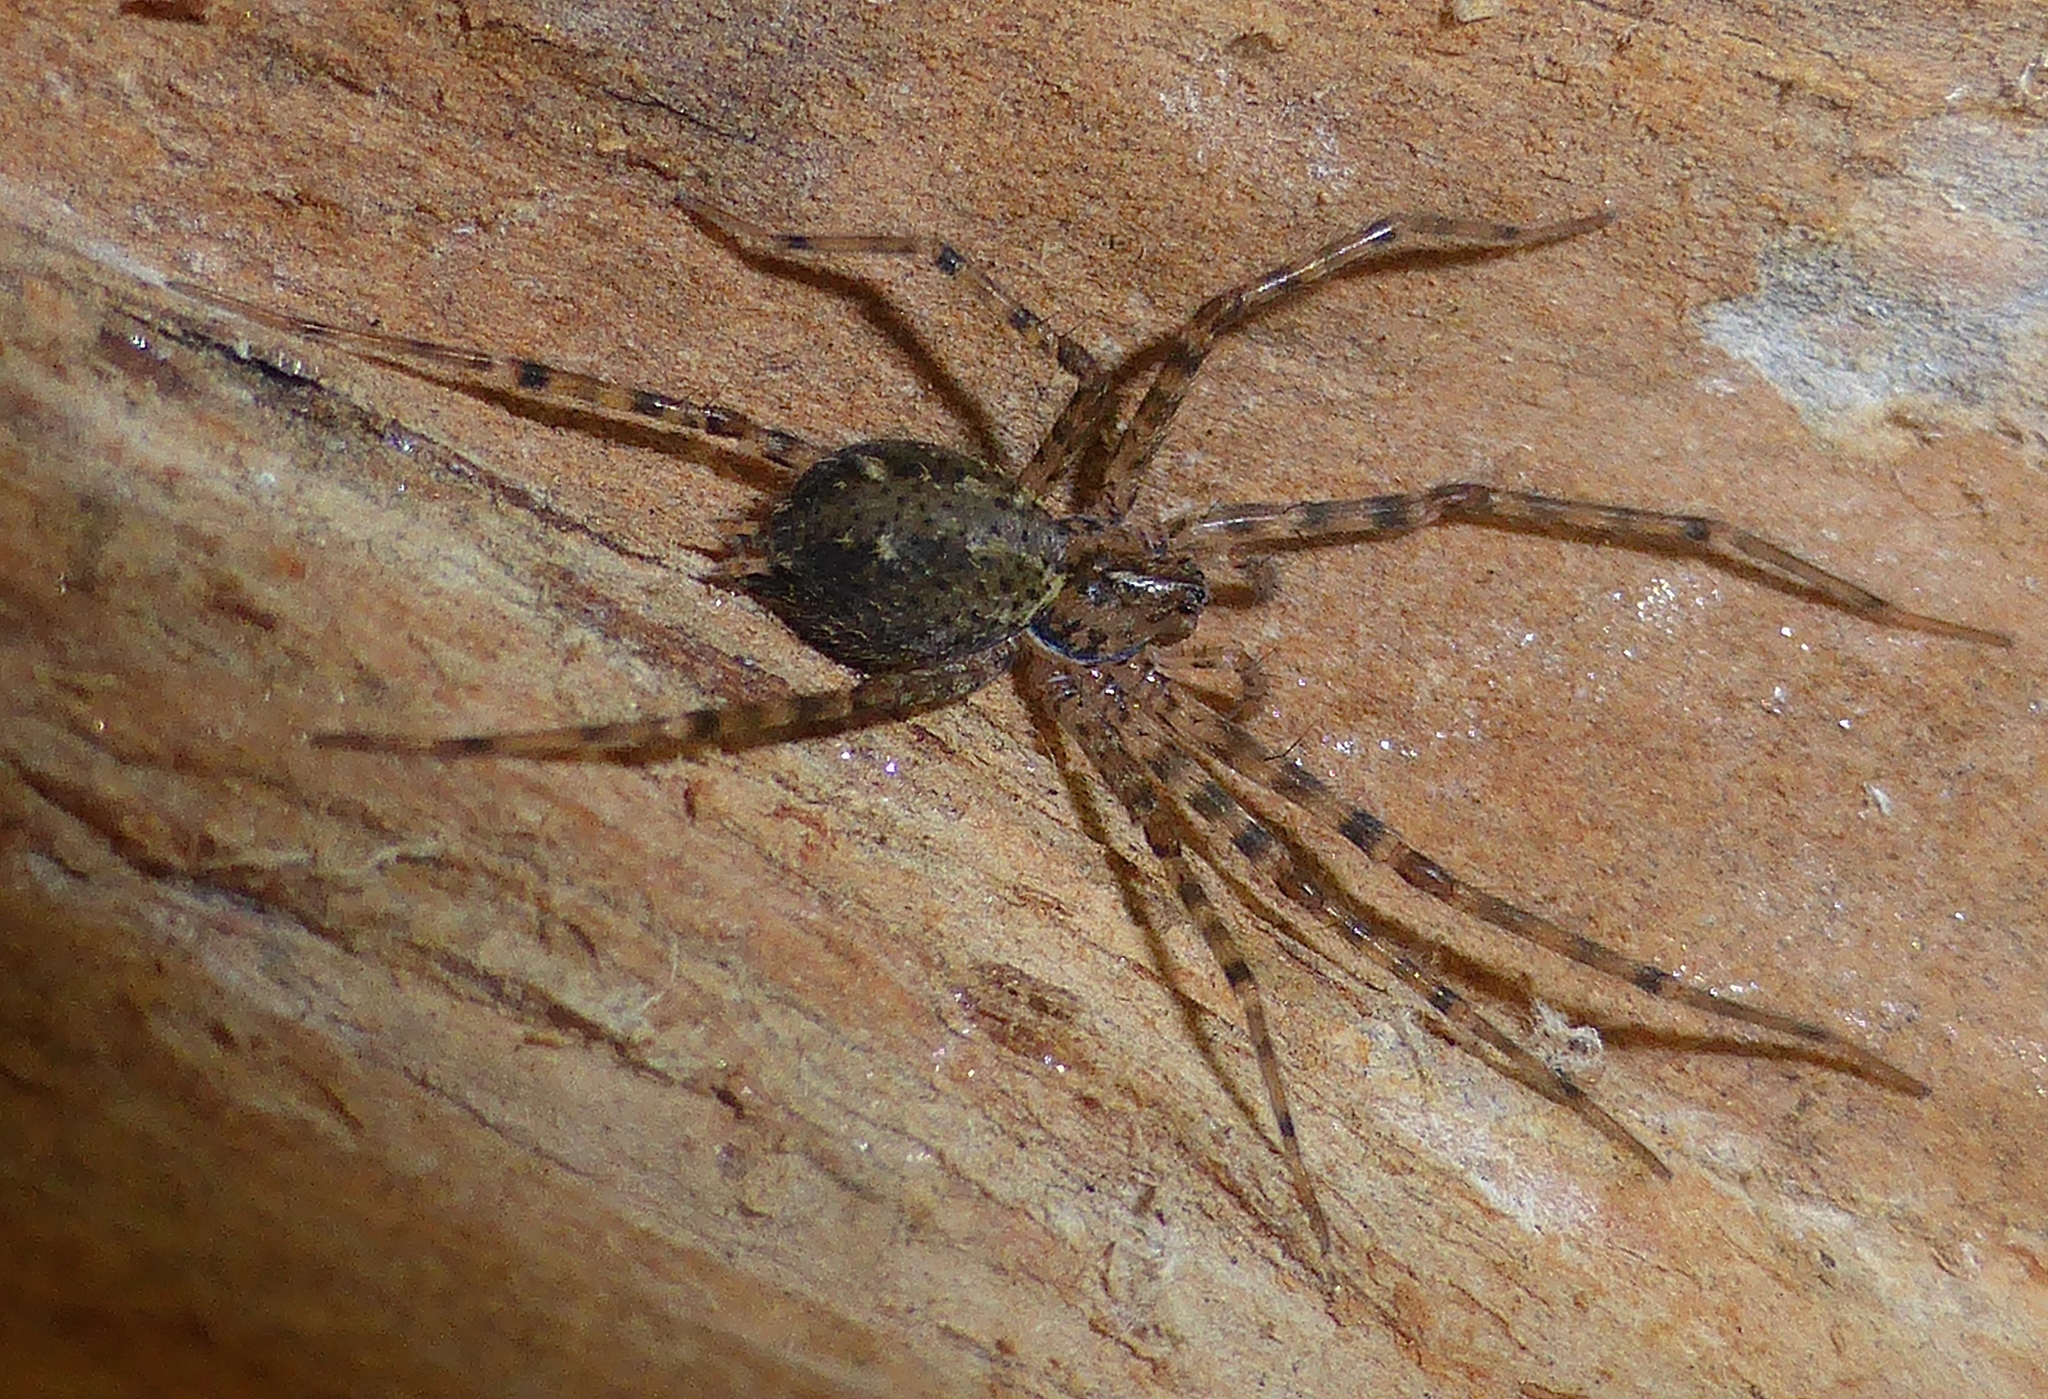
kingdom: Animalia
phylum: Arthropoda
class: Arachnida
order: Araneae
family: Stiphidiidae
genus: Stiphidion
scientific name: Stiphidion facetum
